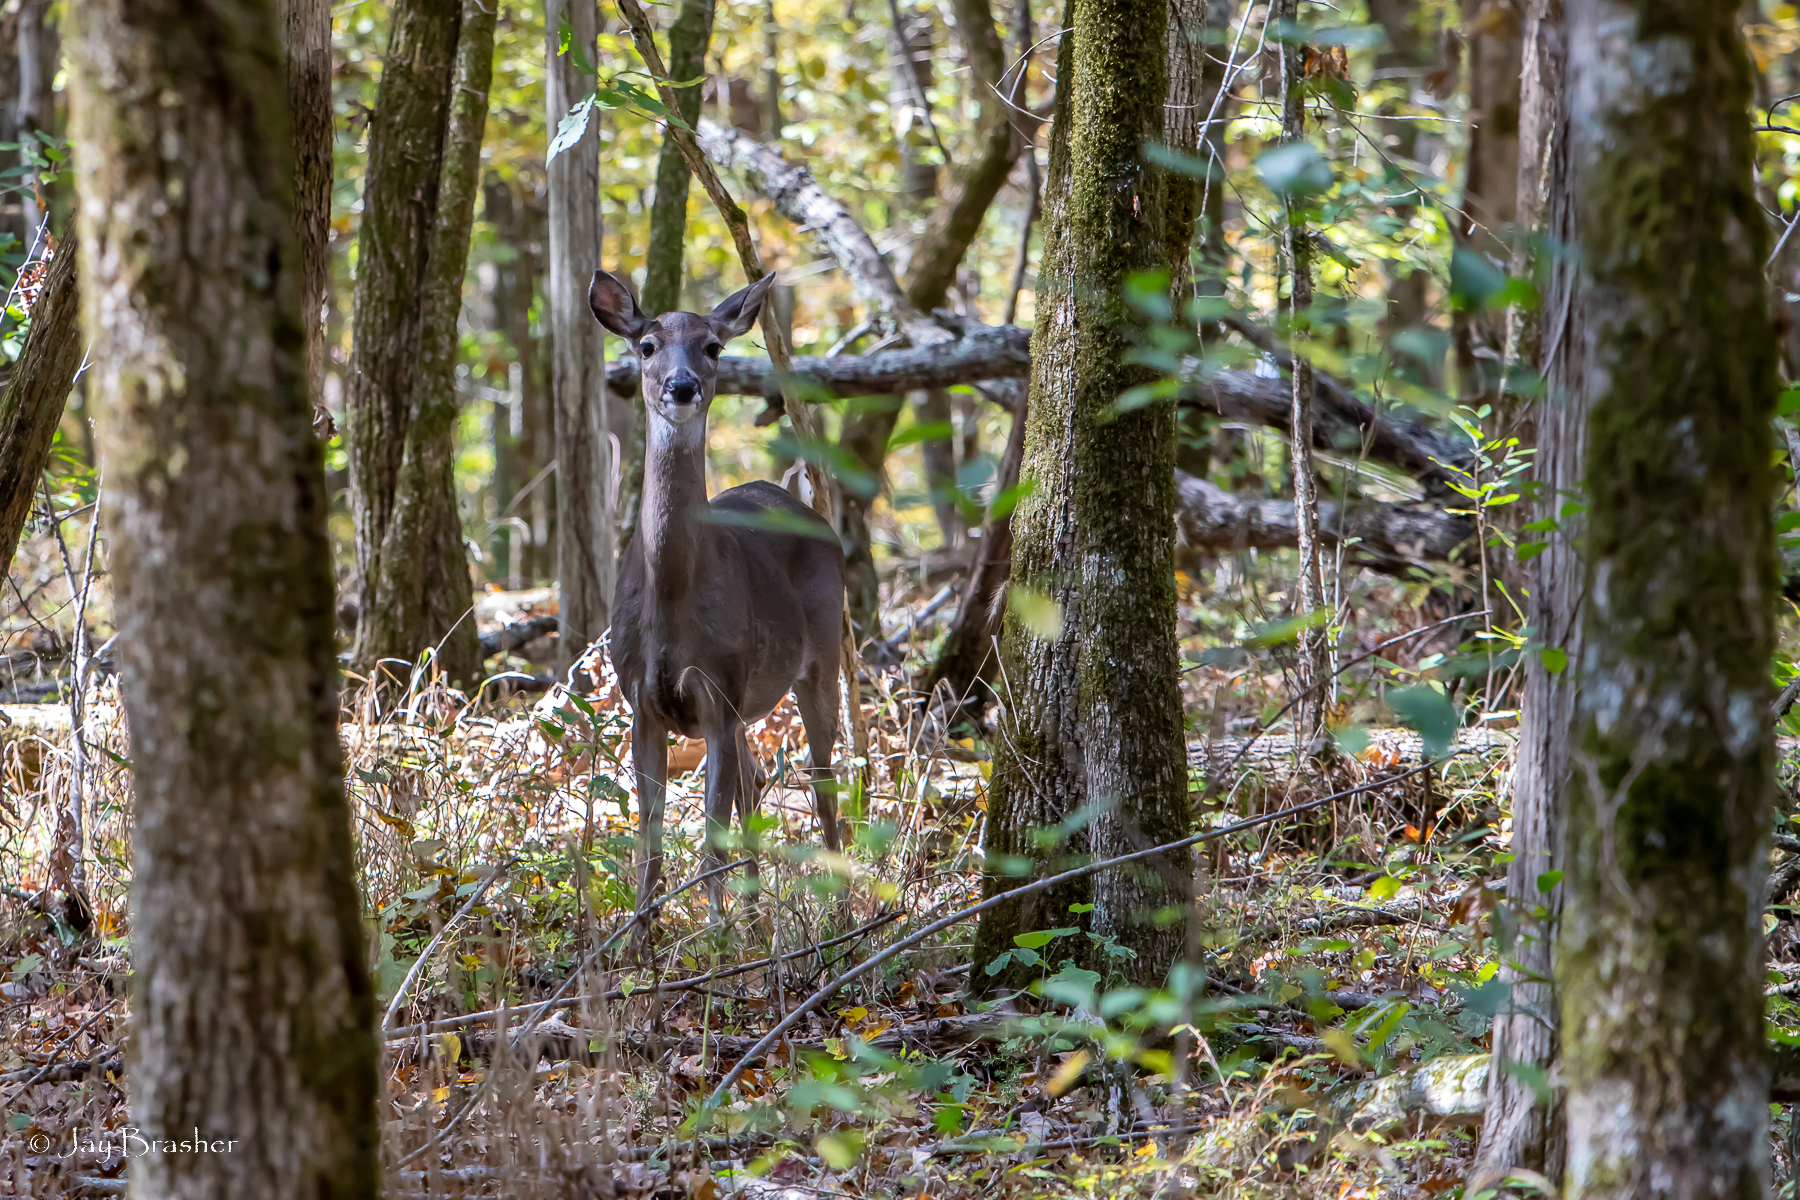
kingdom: Animalia
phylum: Chordata
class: Mammalia
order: Artiodactyla
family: Cervidae
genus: Odocoileus
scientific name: Odocoileus virginianus
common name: White-tailed deer
